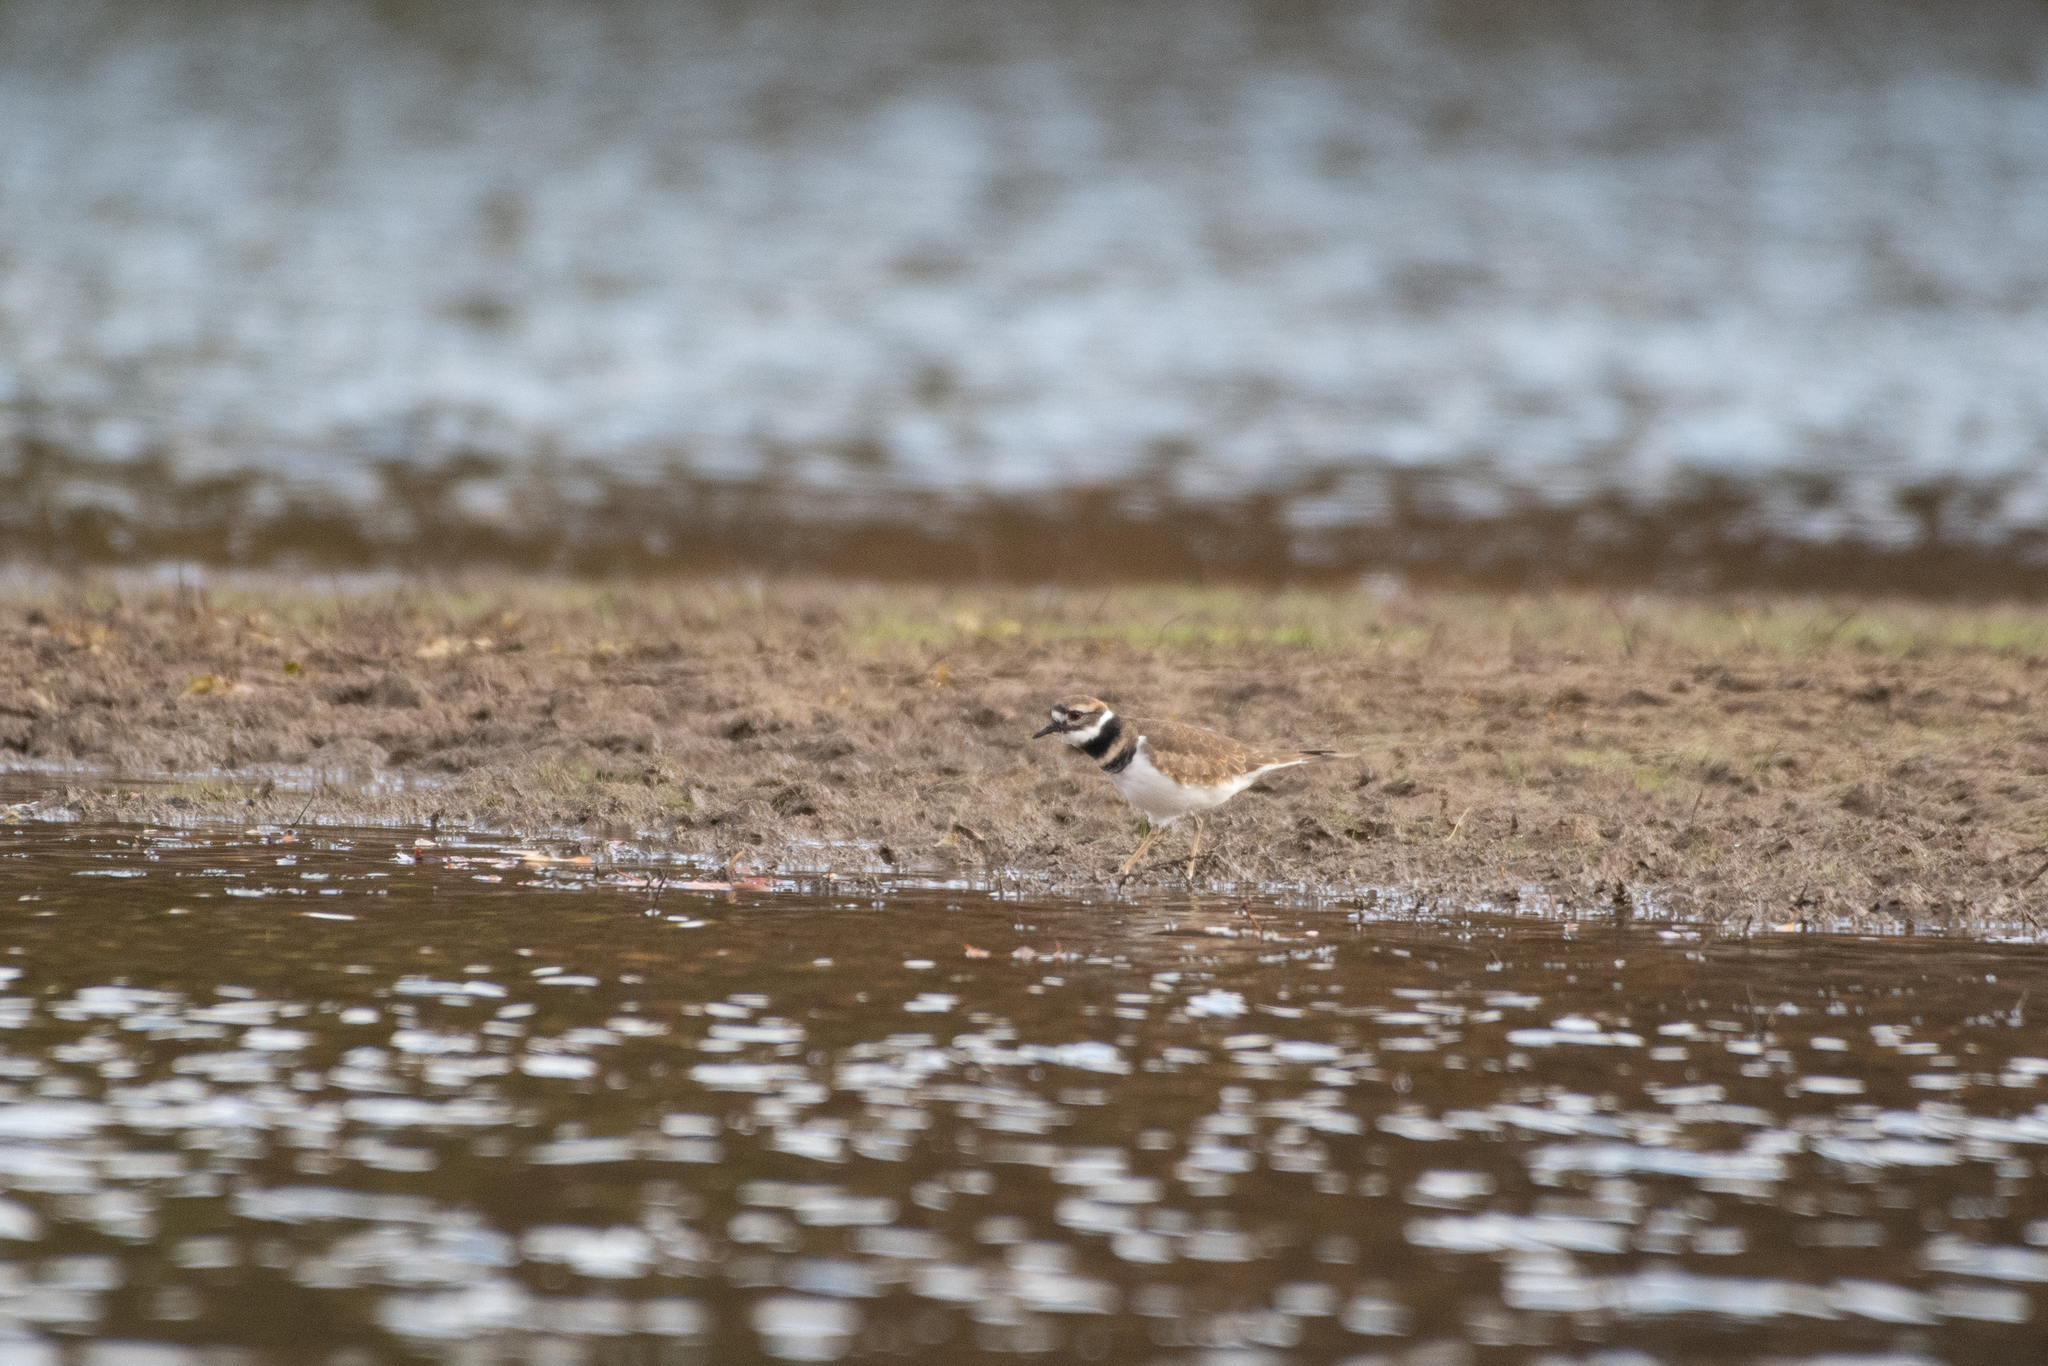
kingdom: Animalia
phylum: Chordata
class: Aves
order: Charadriiformes
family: Charadriidae
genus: Charadrius
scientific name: Charadrius vociferus
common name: Killdeer
